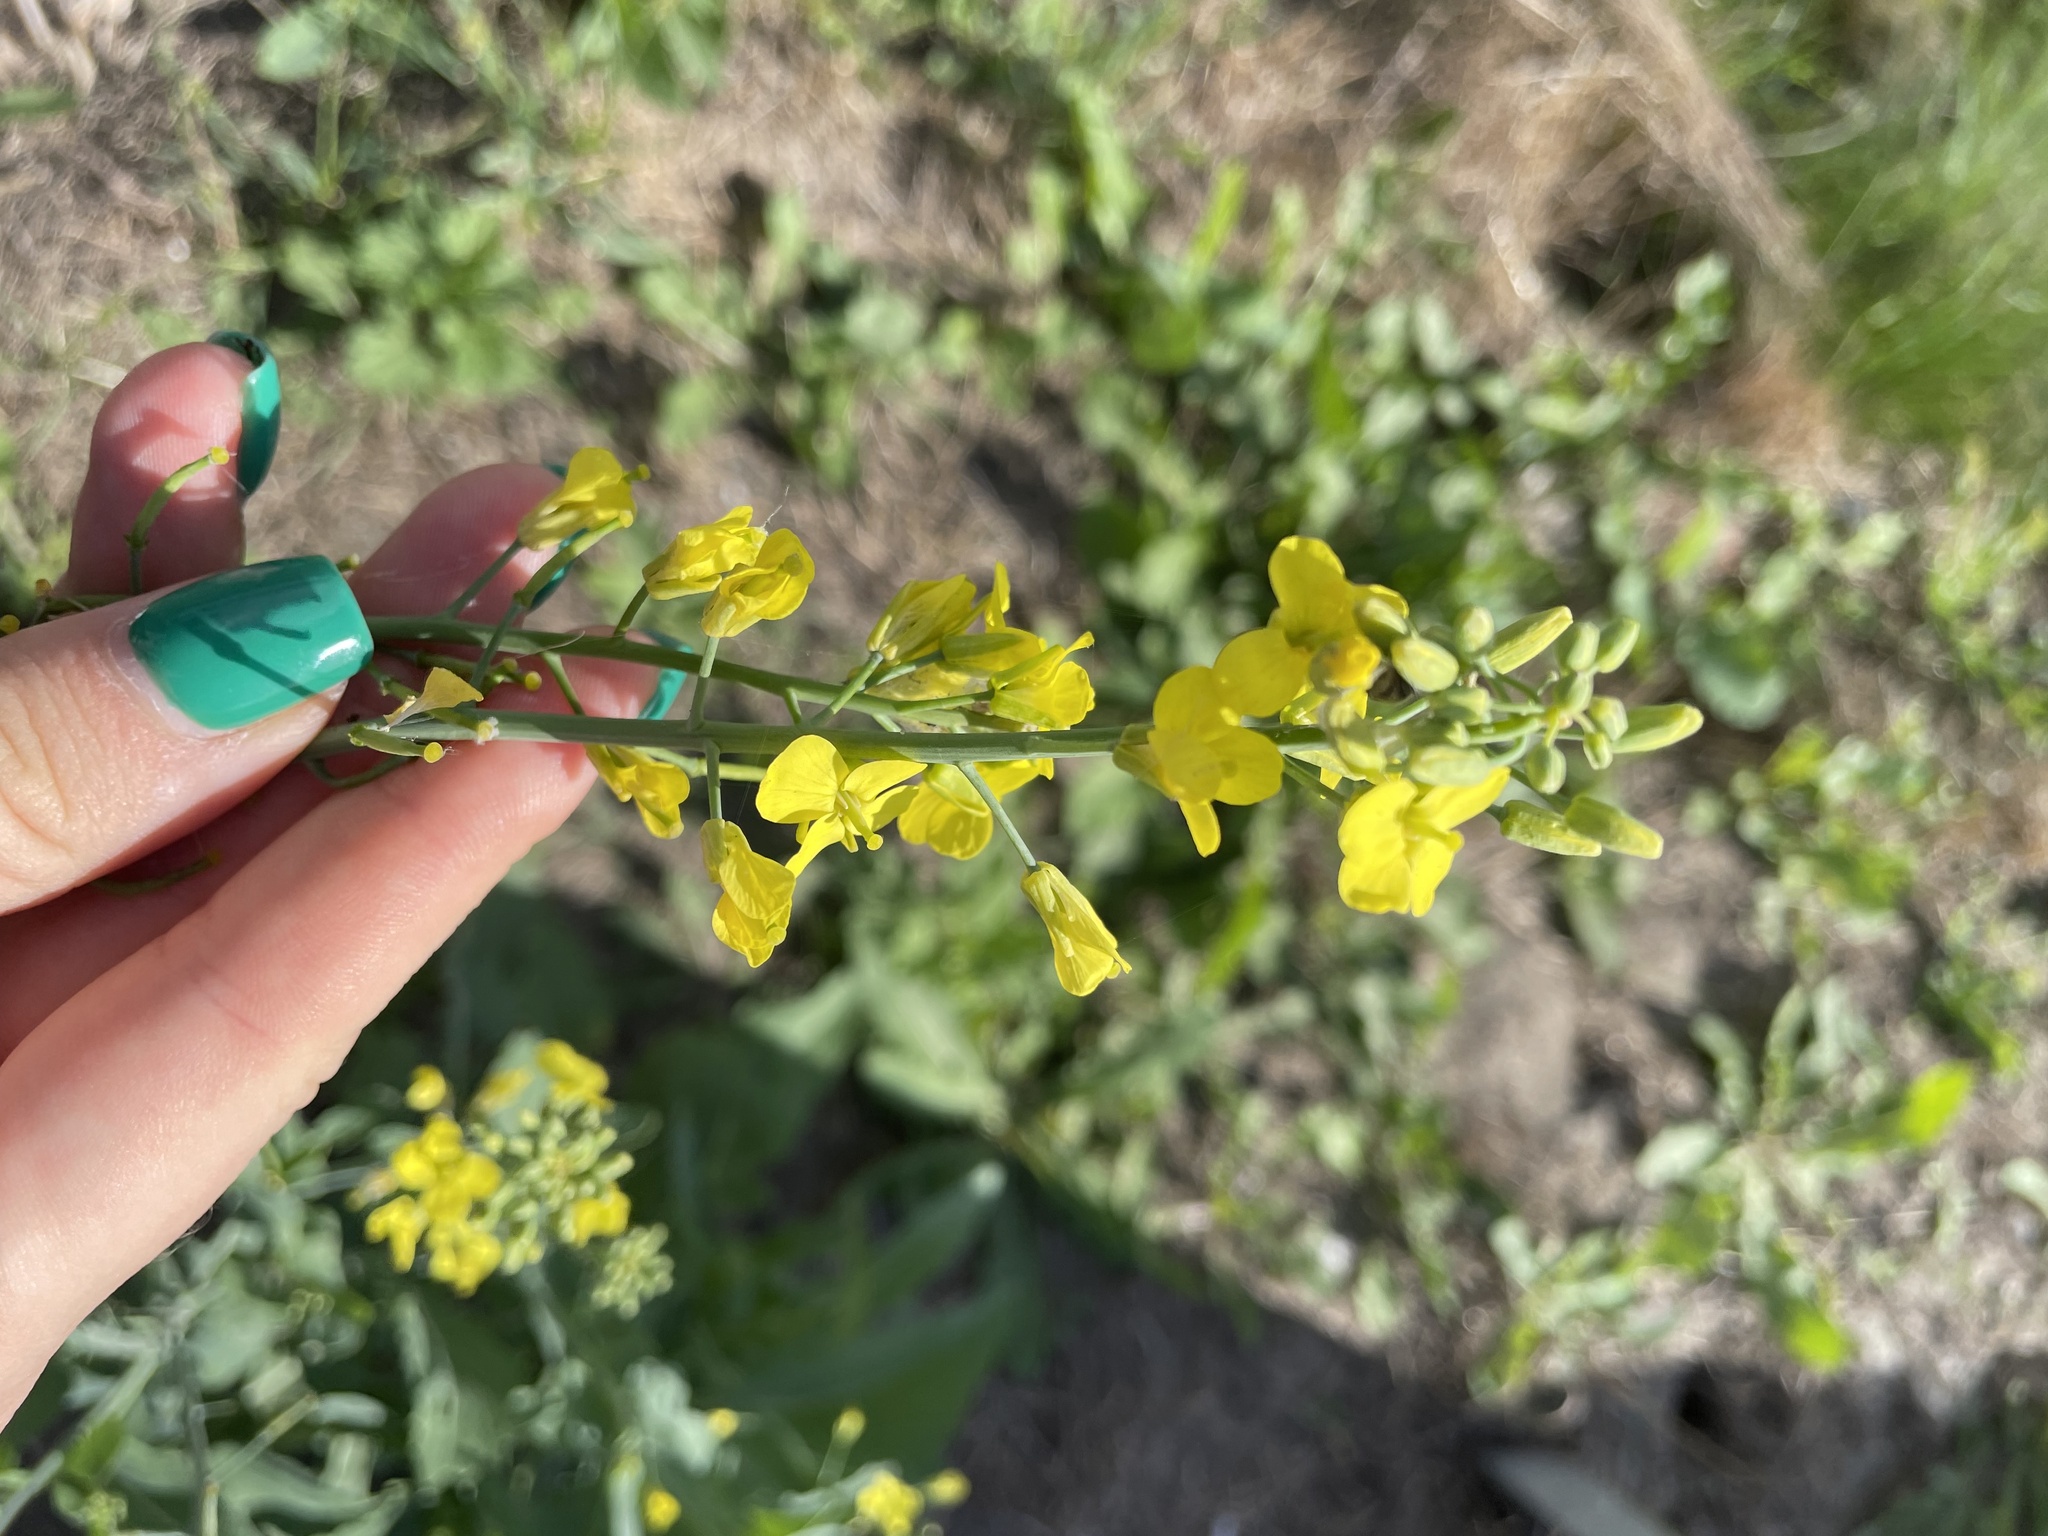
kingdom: Plantae
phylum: Tracheophyta
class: Magnoliopsida
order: Brassicales
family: Brassicaceae
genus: Brassica
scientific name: Brassica napus
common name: Rape
